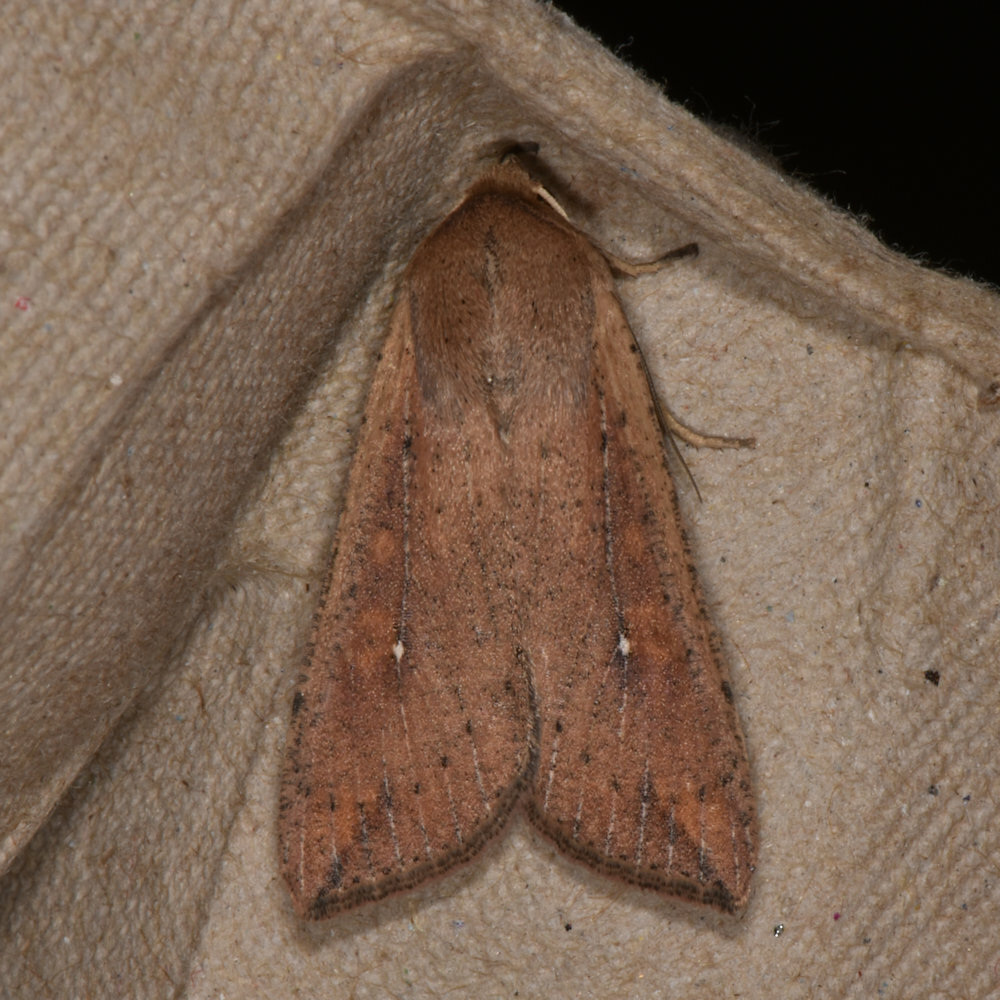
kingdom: Animalia
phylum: Arthropoda
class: Insecta
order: Lepidoptera
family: Noctuidae
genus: Mythimna
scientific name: Mythimna unipuncta
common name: White-speck
